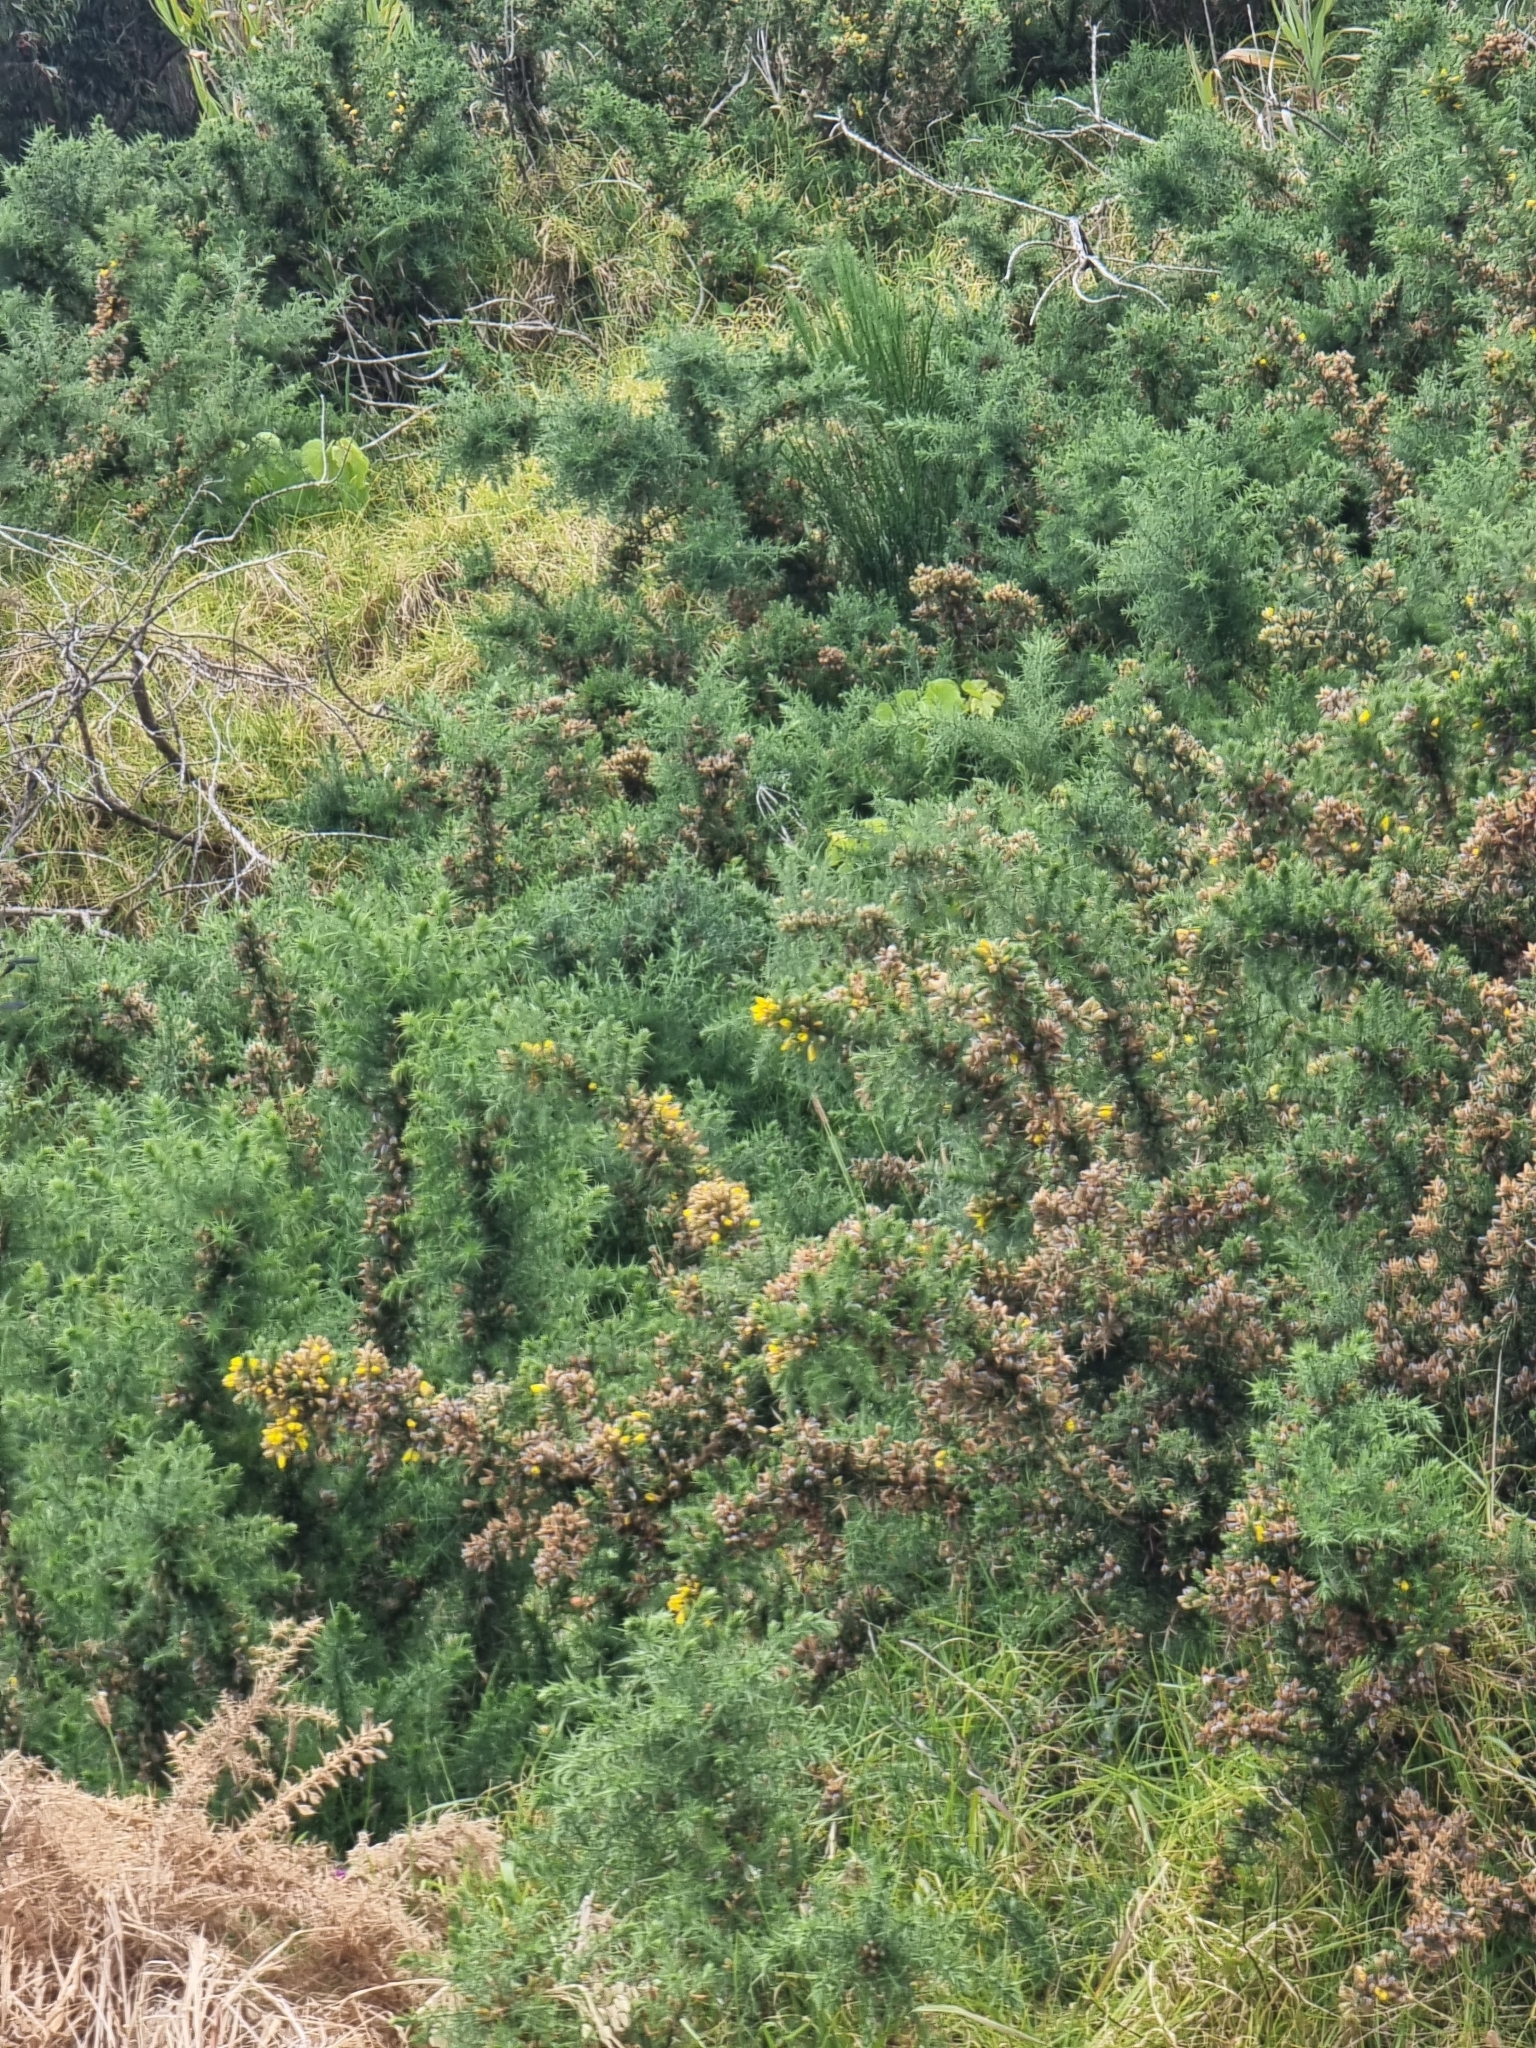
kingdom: Plantae
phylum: Tracheophyta
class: Magnoliopsida
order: Fabales
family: Fabaceae
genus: Ulex
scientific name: Ulex europaeus
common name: Common gorse
